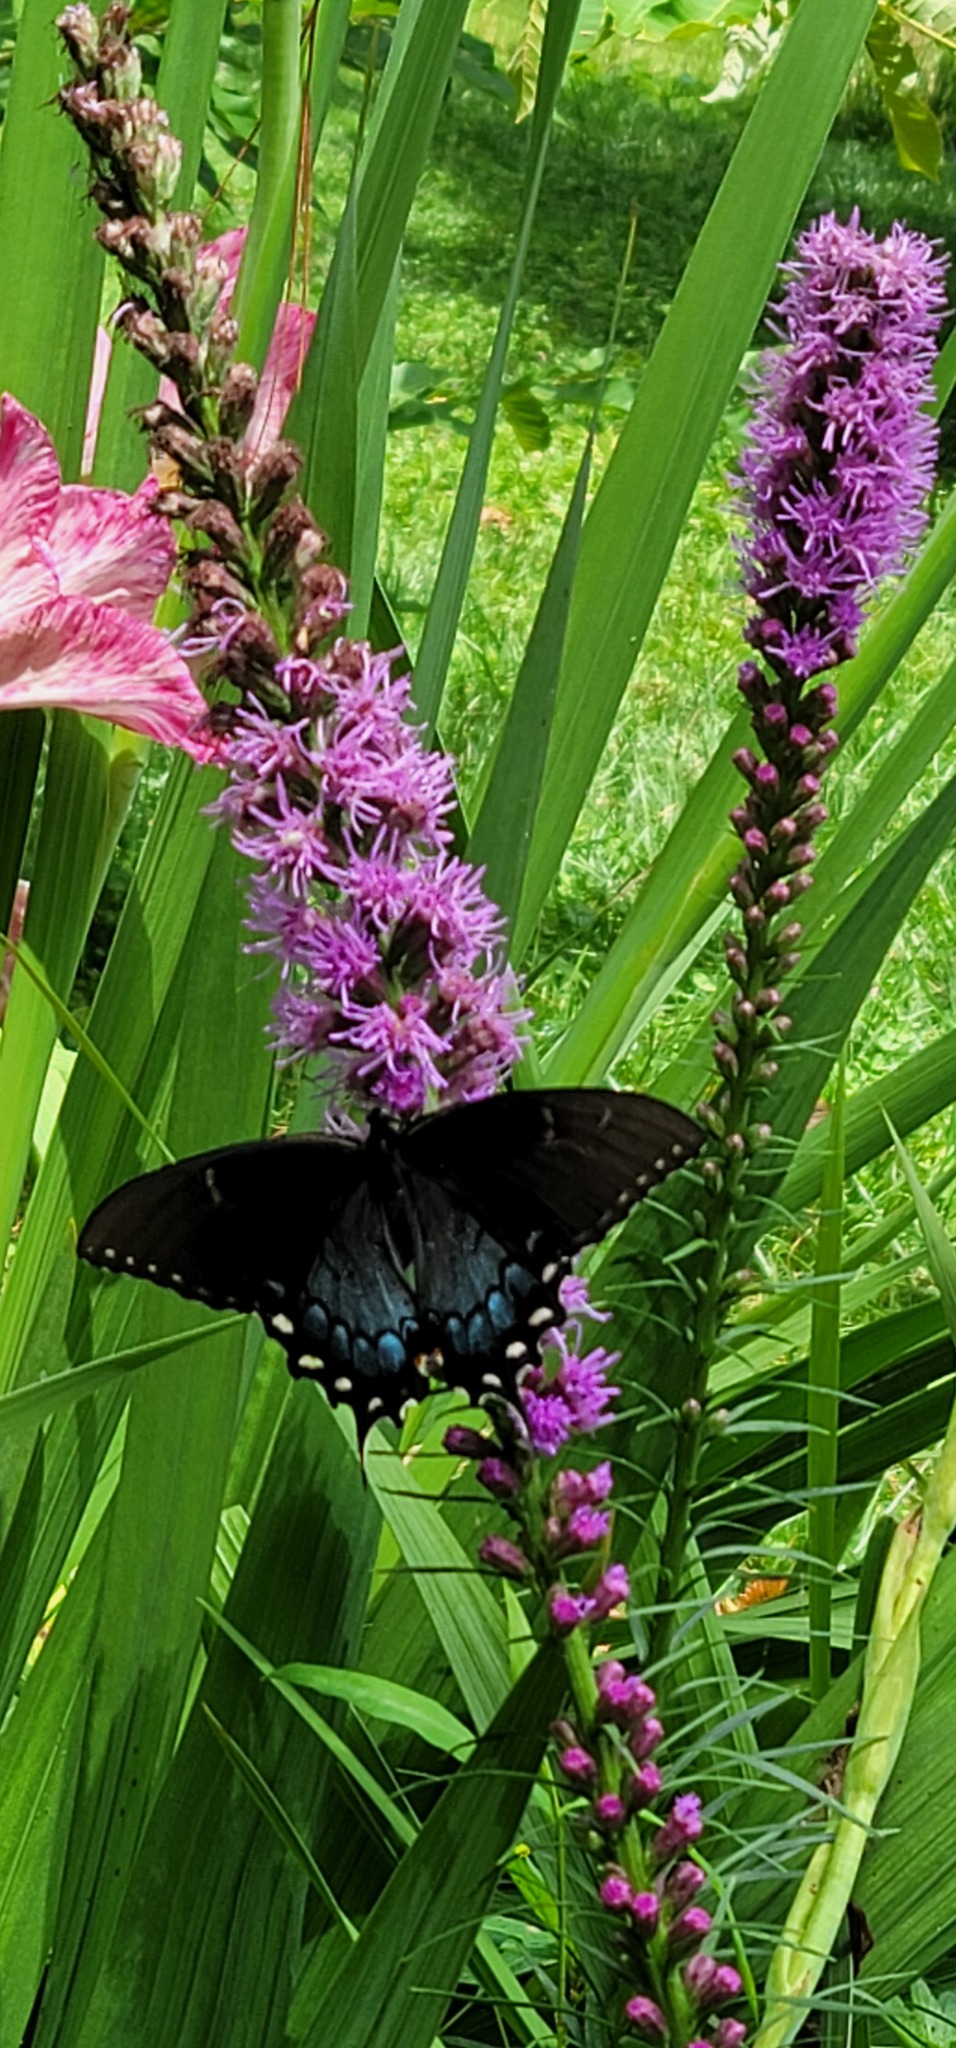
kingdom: Animalia
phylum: Arthropoda
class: Insecta
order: Lepidoptera
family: Papilionidae
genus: Papilio
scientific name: Papilio glaucus
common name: Tiger swallowtail
